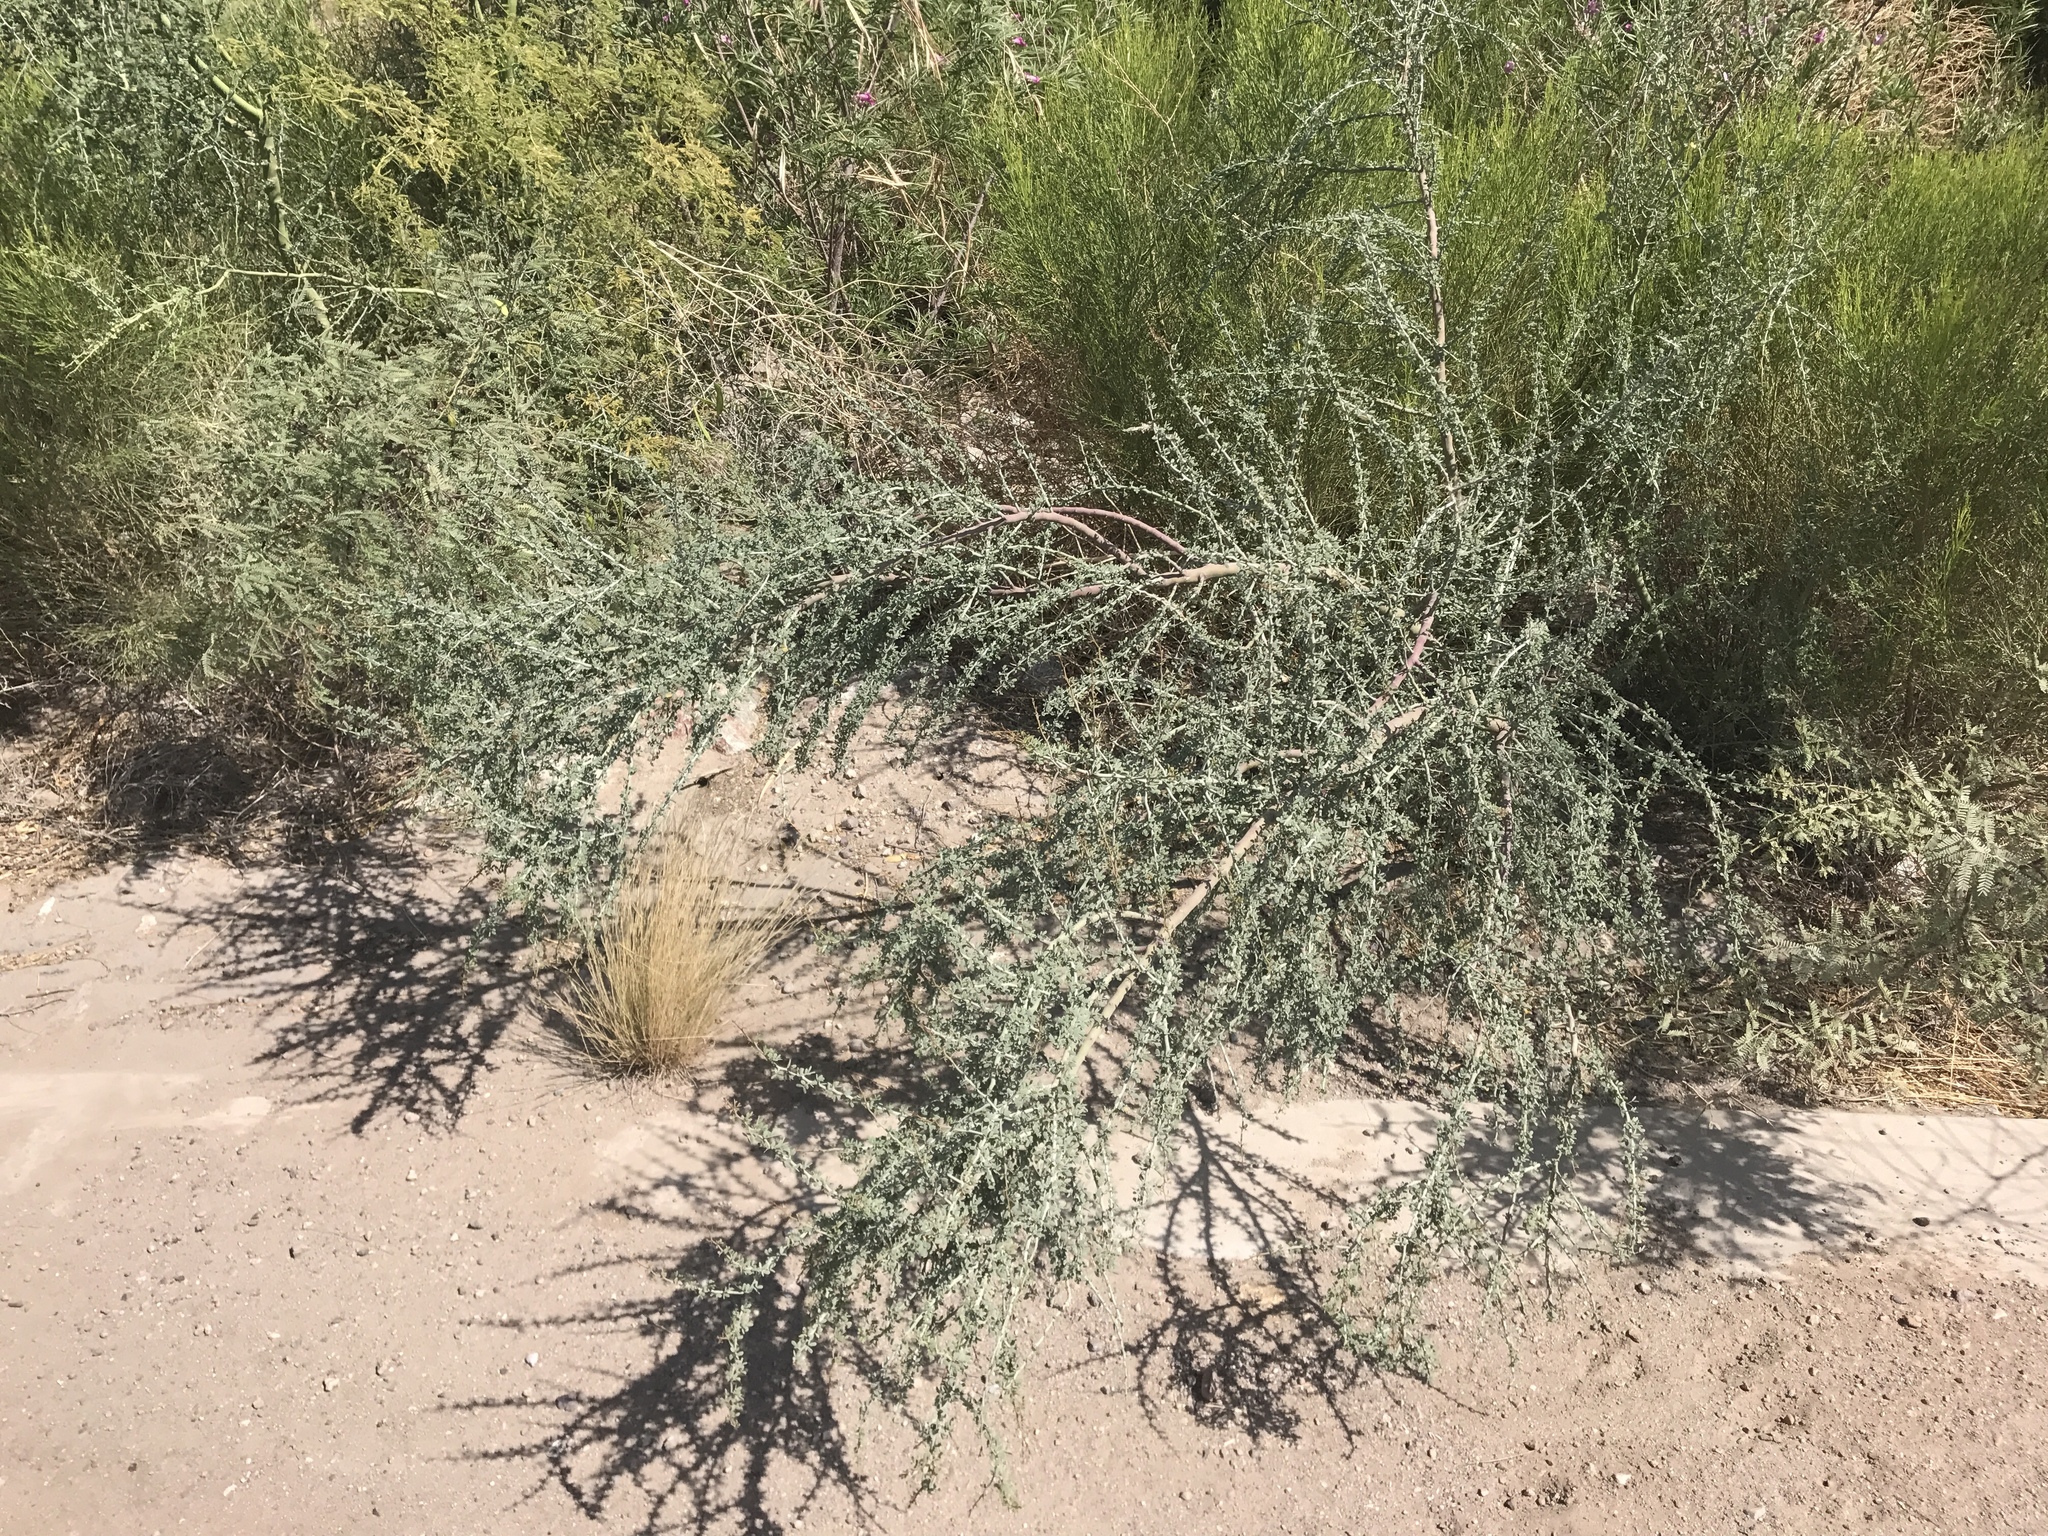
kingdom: Plantae
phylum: Tracheophyta
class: Magnoliopsida
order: Fabales
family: Fabaceae
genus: Parkinsonia
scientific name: Parkinsonia florida
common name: Blue paloverde
